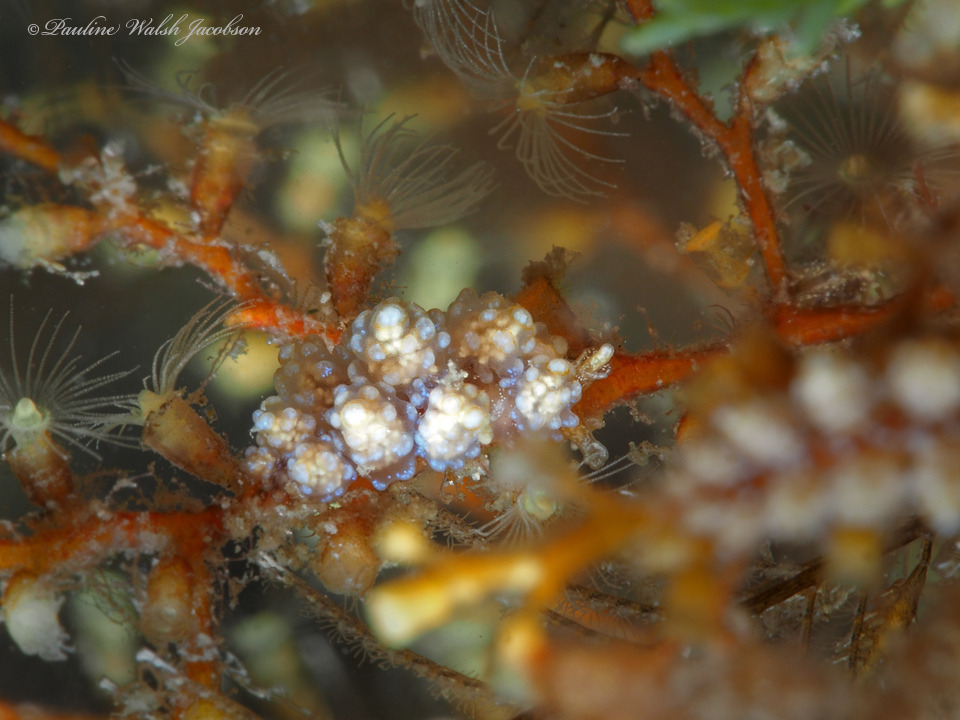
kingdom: Animalia
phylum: Mollusca
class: Gastropoda
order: Nudibranchia
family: Dotidae
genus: Doto
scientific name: Doto torrelavega
